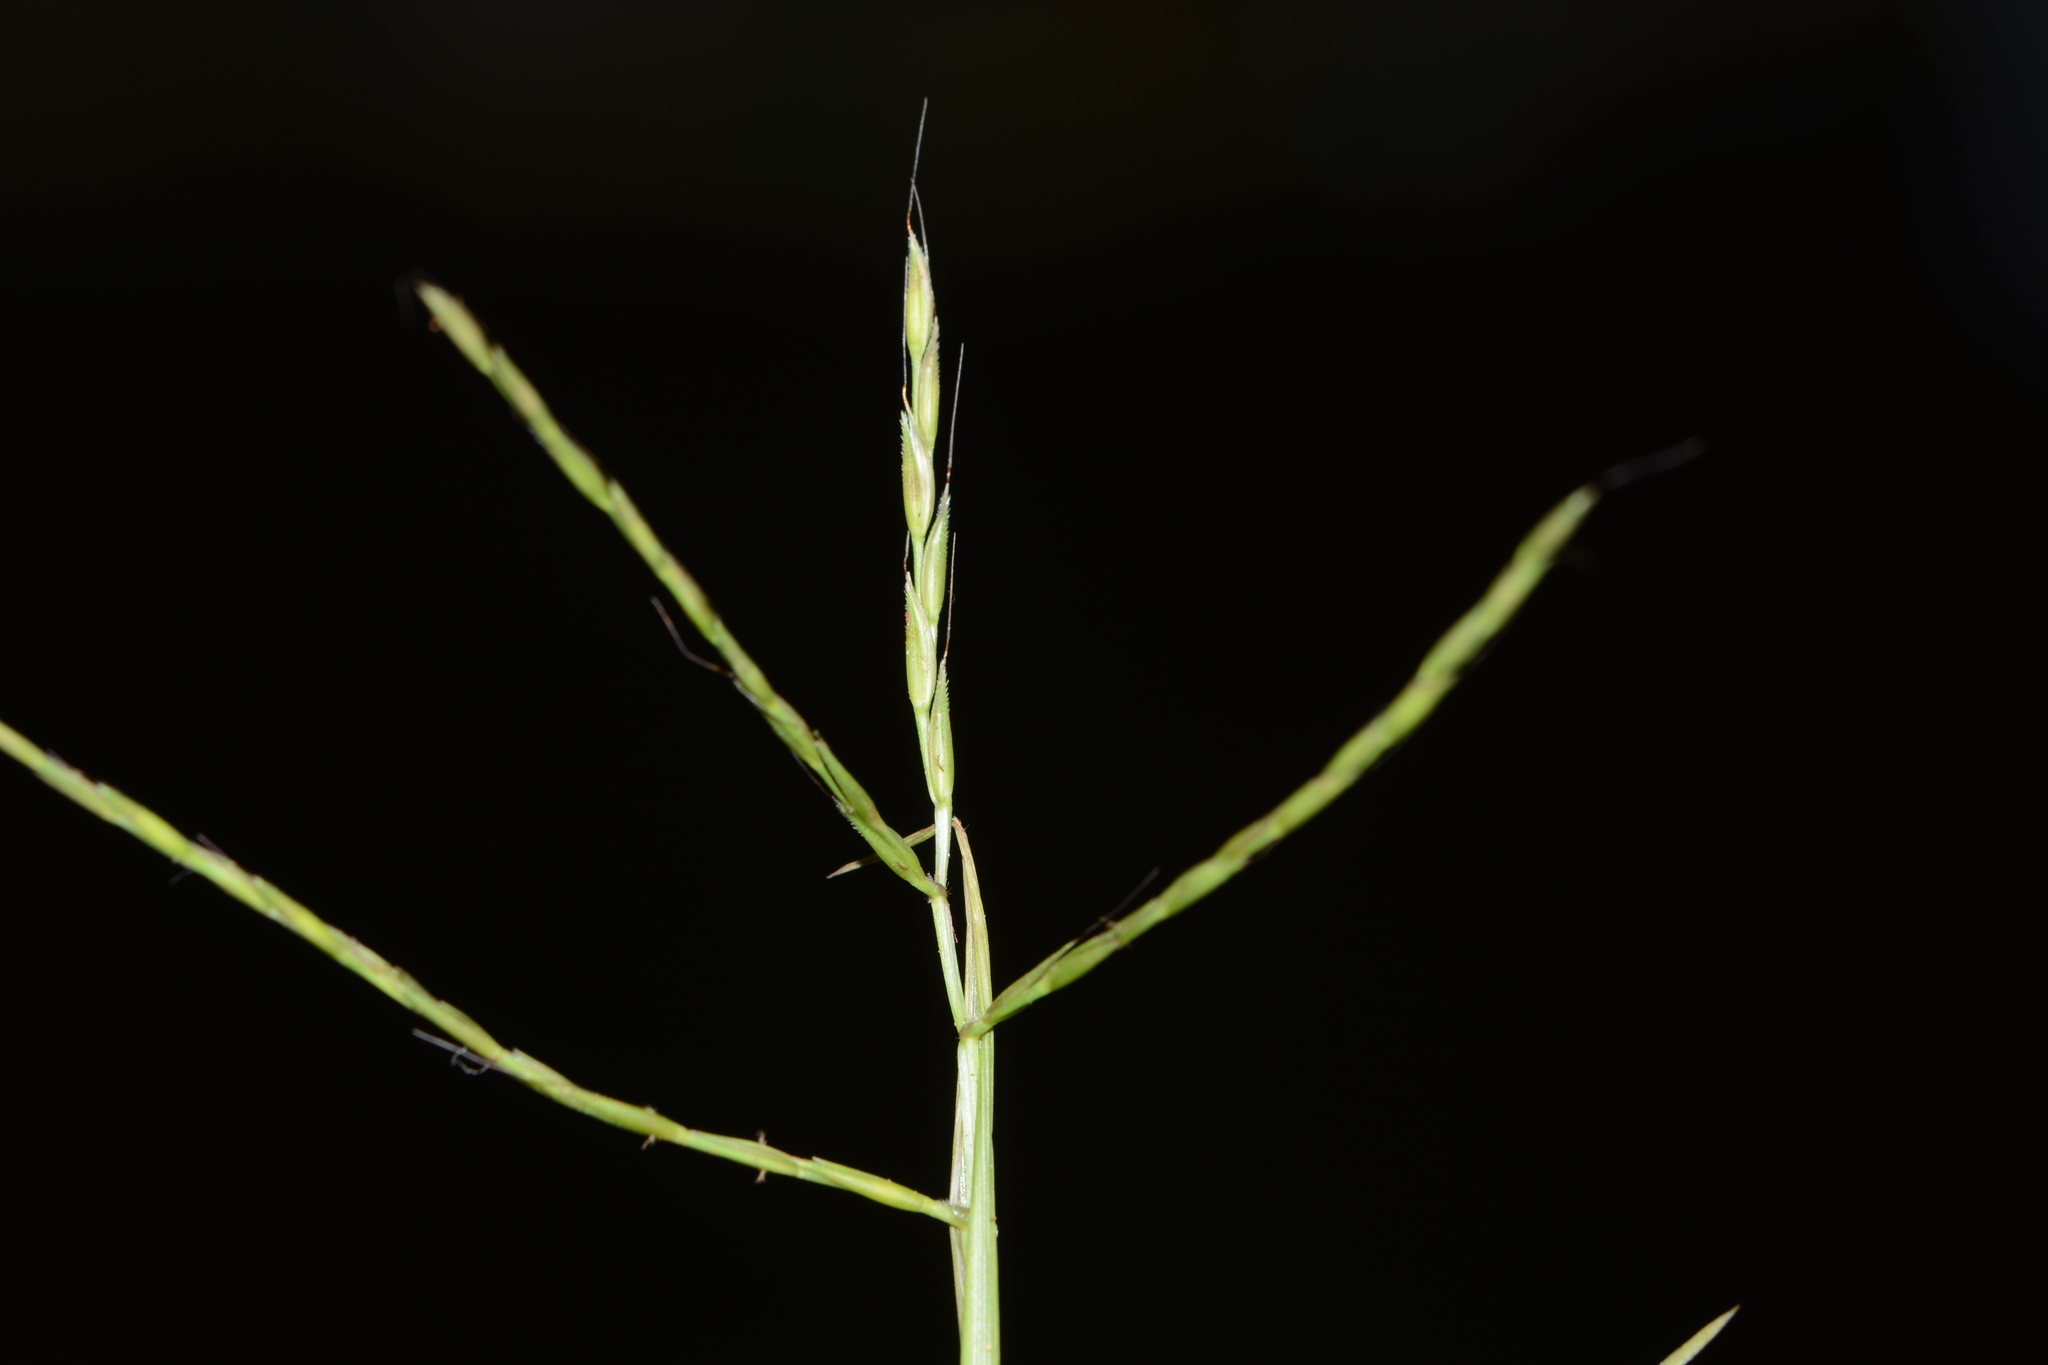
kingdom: Plantae
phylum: Tracheophyta
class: Liliopsida
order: Poales
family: Poaceae
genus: Arthraxon
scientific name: Arthraxon nudus
